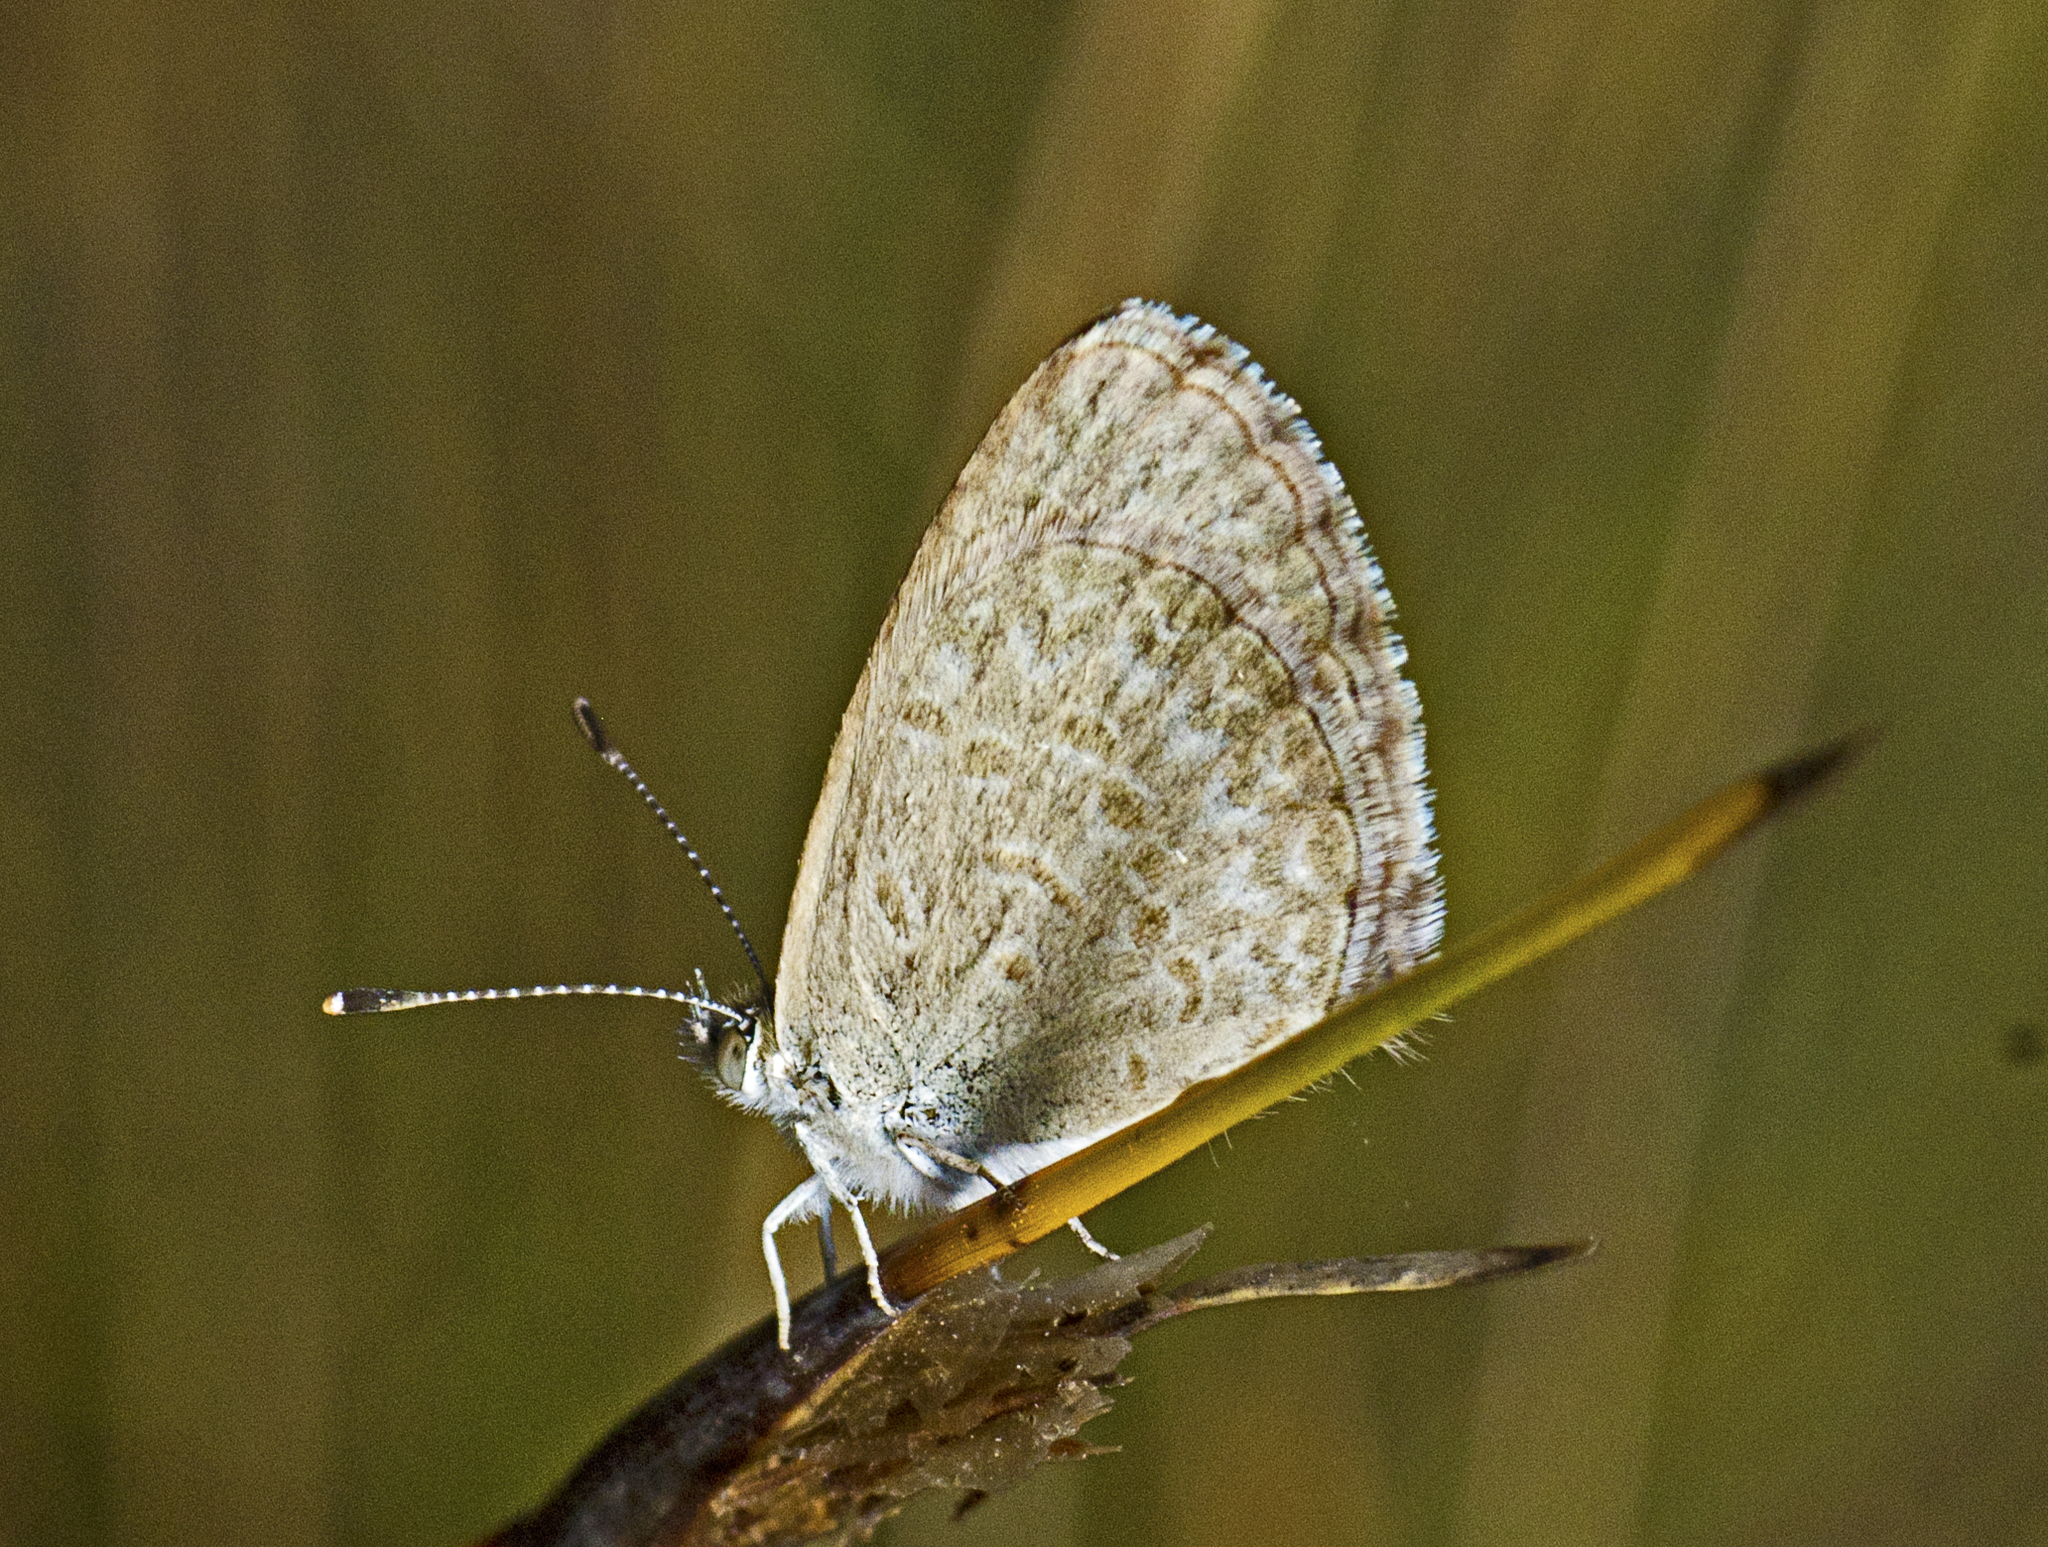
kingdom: Animalia
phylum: Arthropoda
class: Insecta
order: Lepidoptera
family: Lycaenidae
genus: Zizina
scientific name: Zizina labradus
